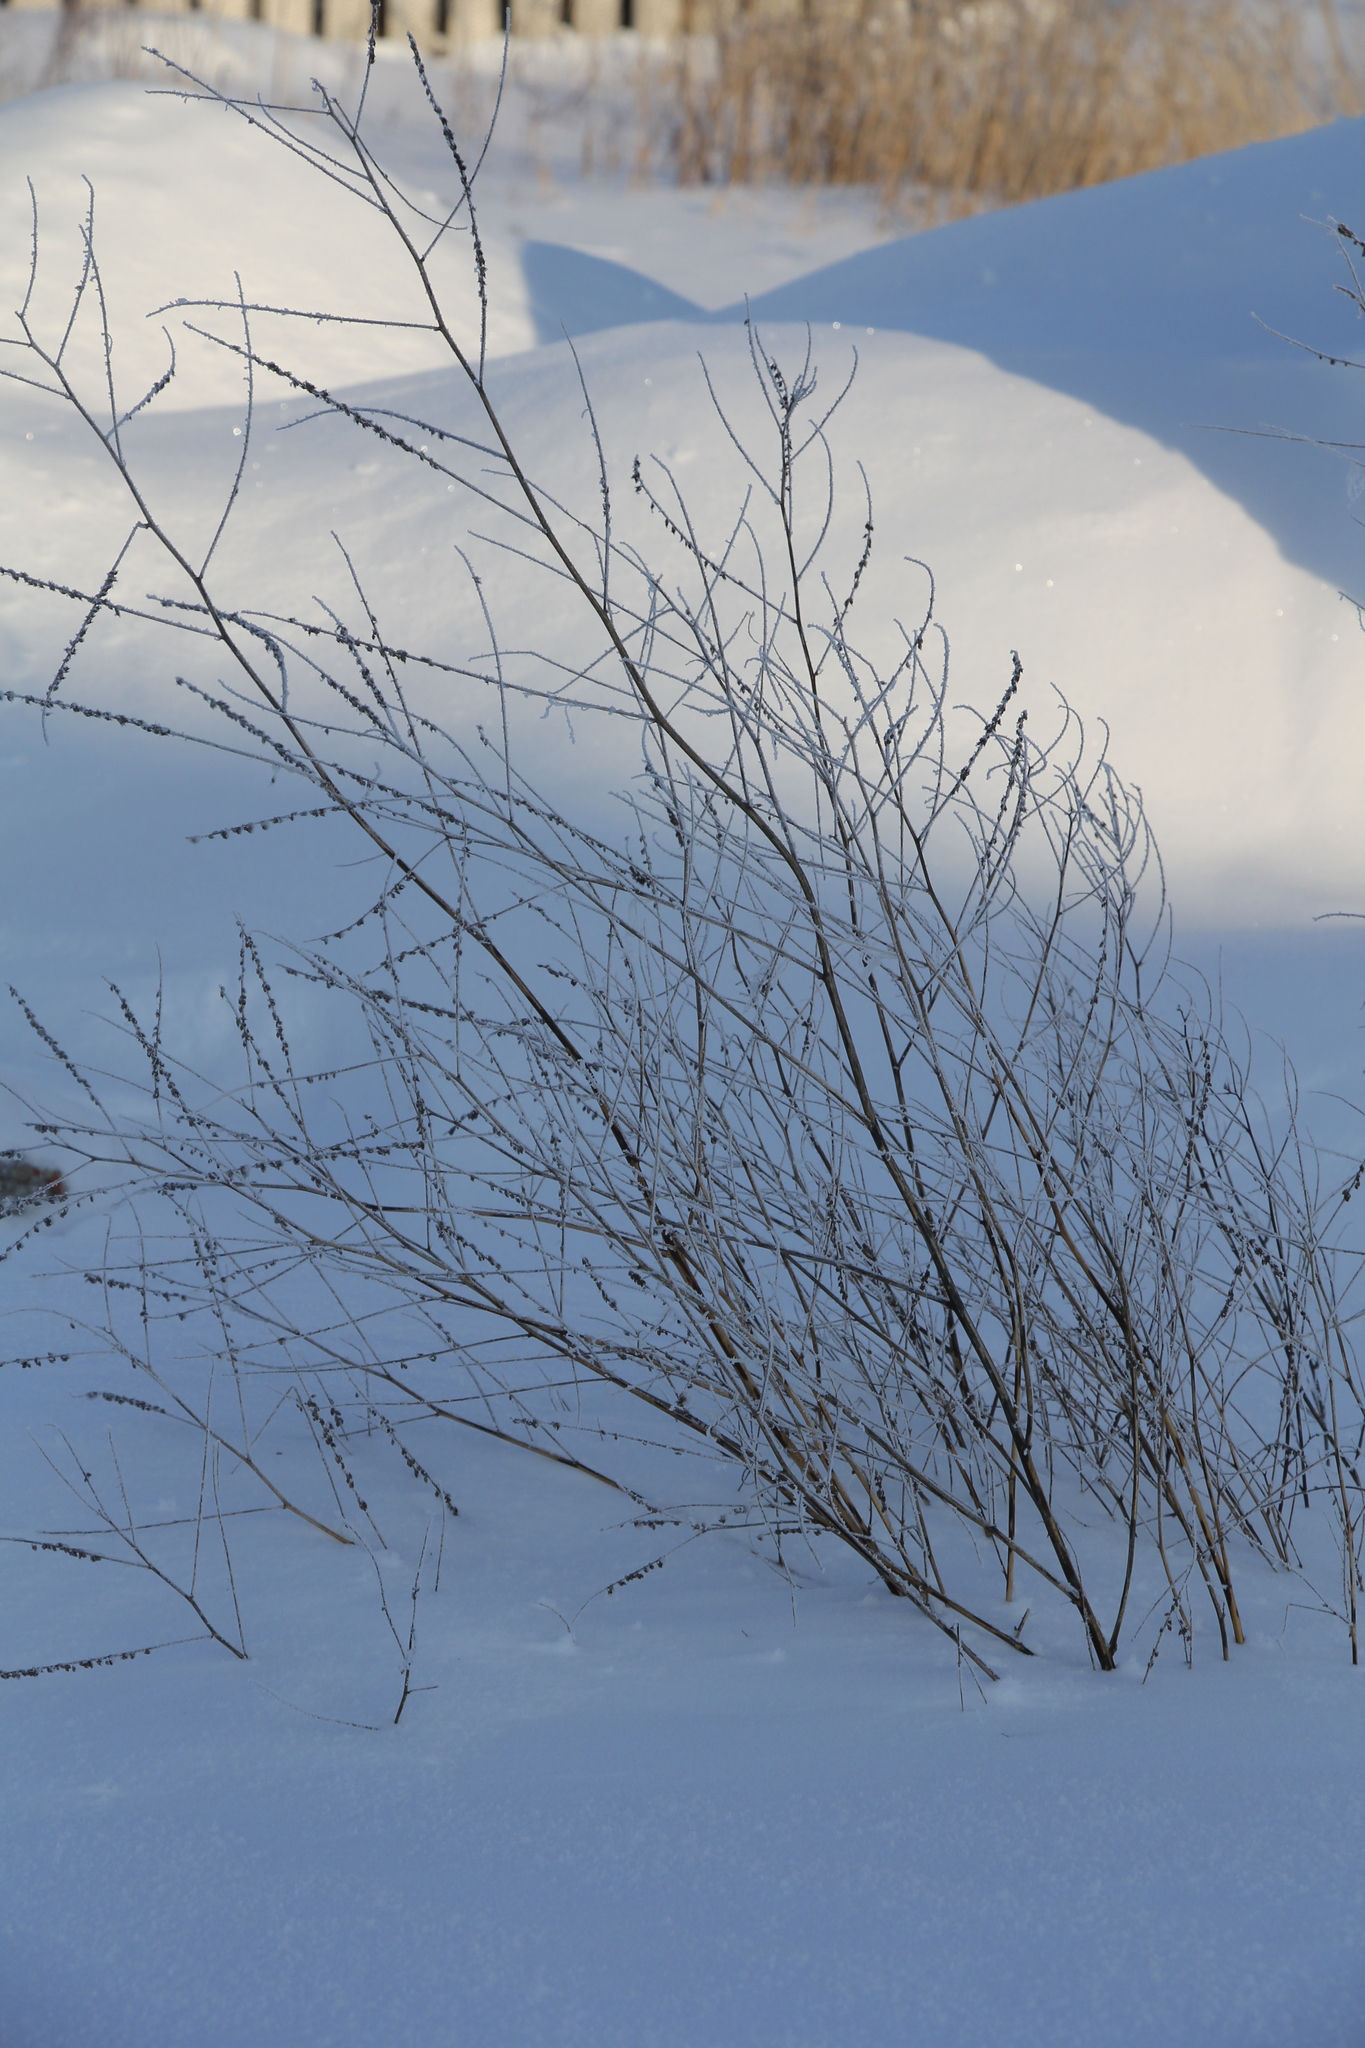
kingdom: Plantae
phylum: Tracheophyta
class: Magnoliopsida
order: Fabales
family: Fabaceae
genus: Melilotus
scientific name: Melilotus albus
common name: White melilot
